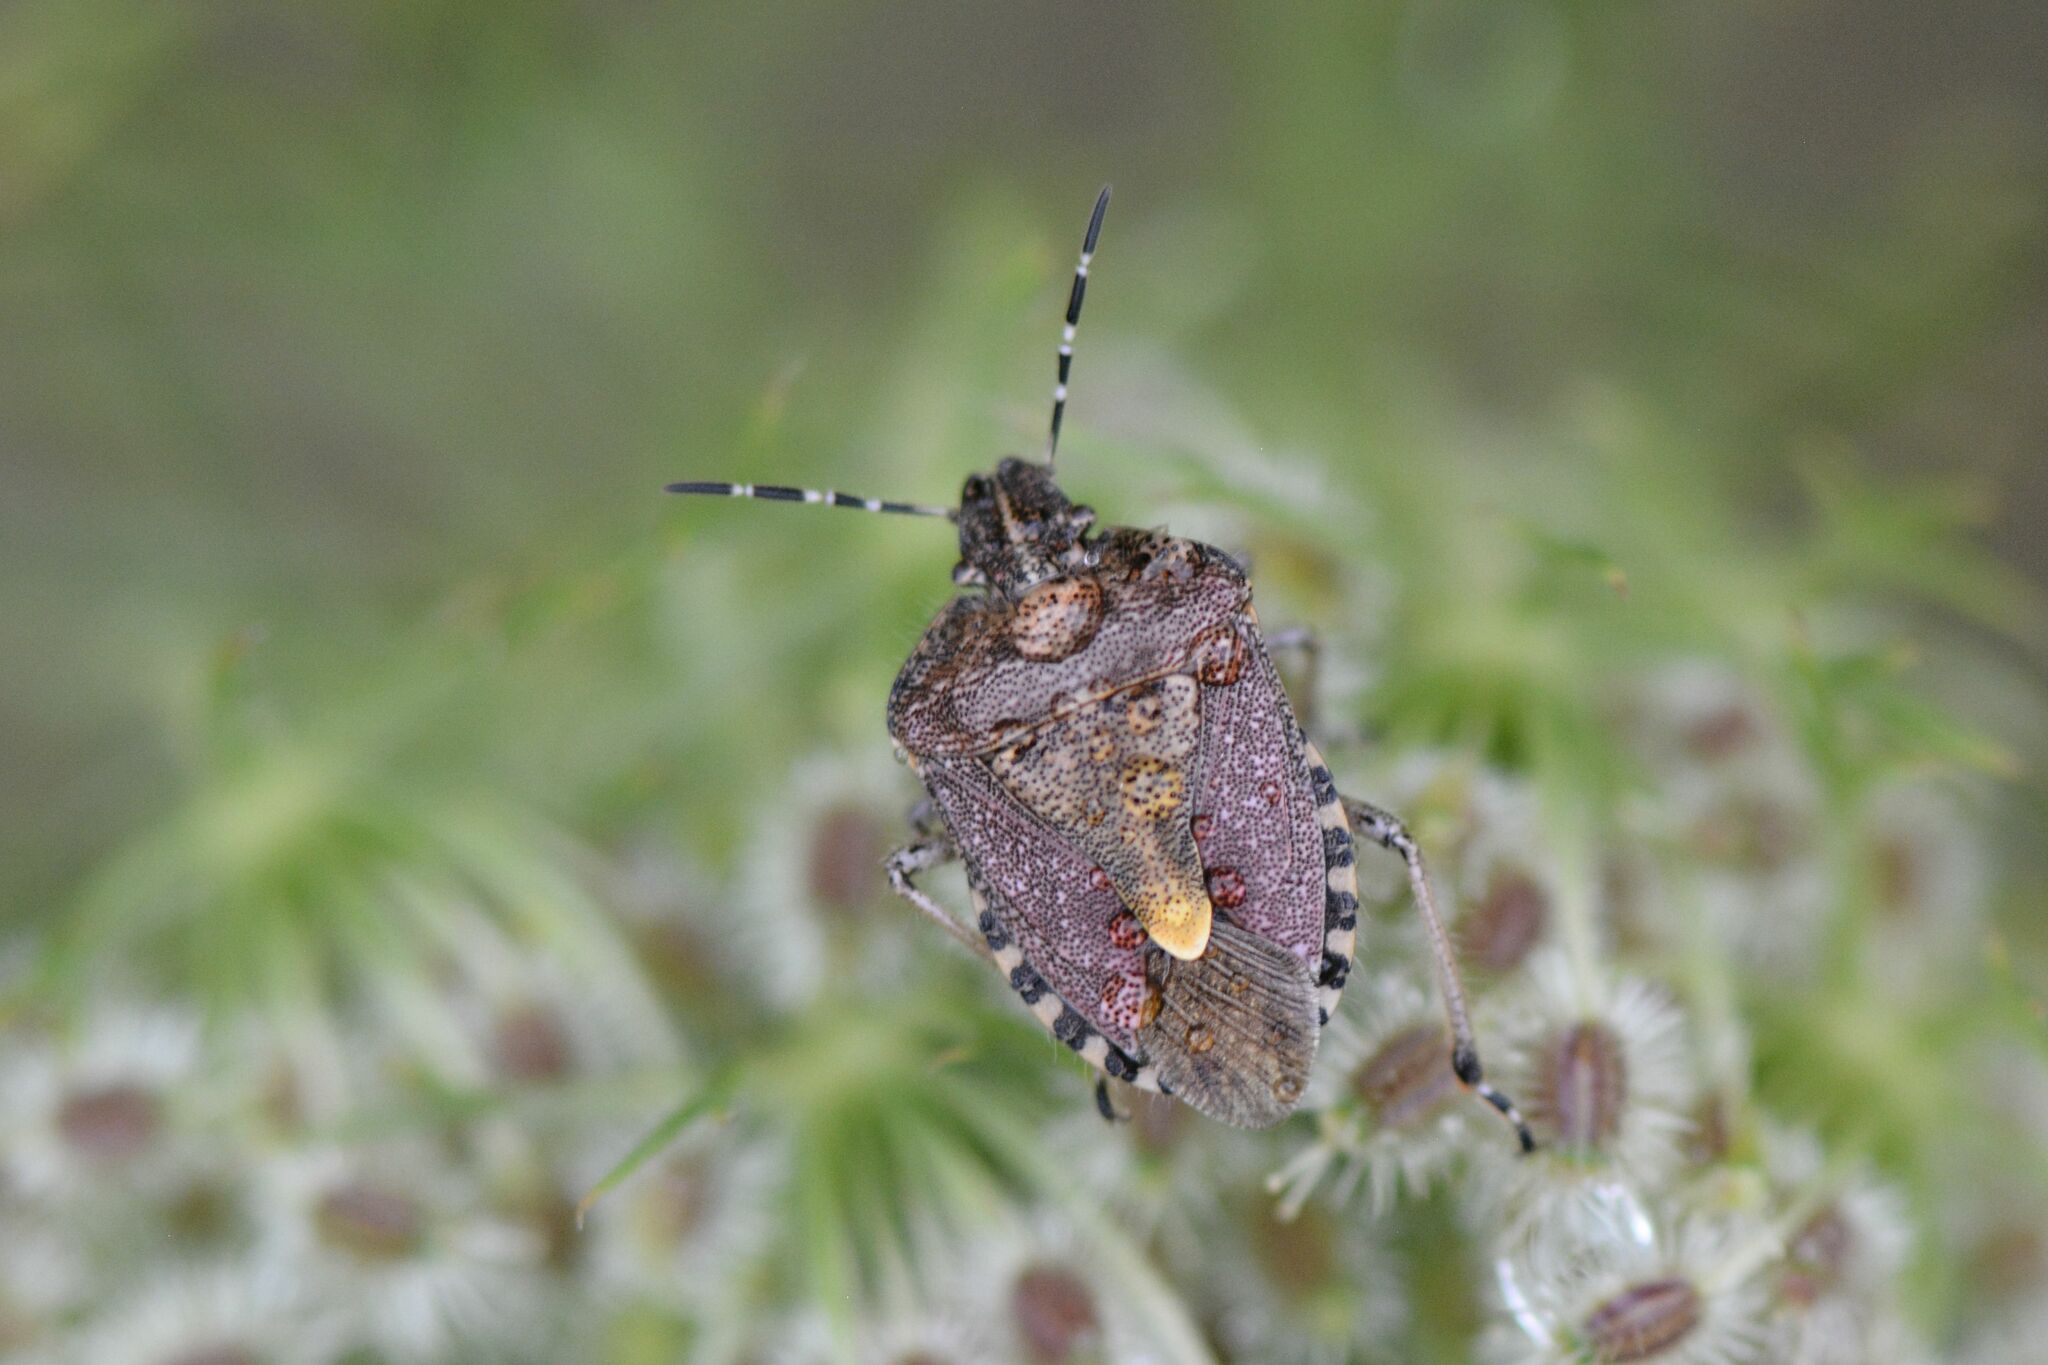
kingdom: Animalia
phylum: Arthropoda
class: Insecta
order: Hemiptera
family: Pentatomidae
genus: Dolycoris
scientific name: Dolycoris baccarum
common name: Sloe bug
